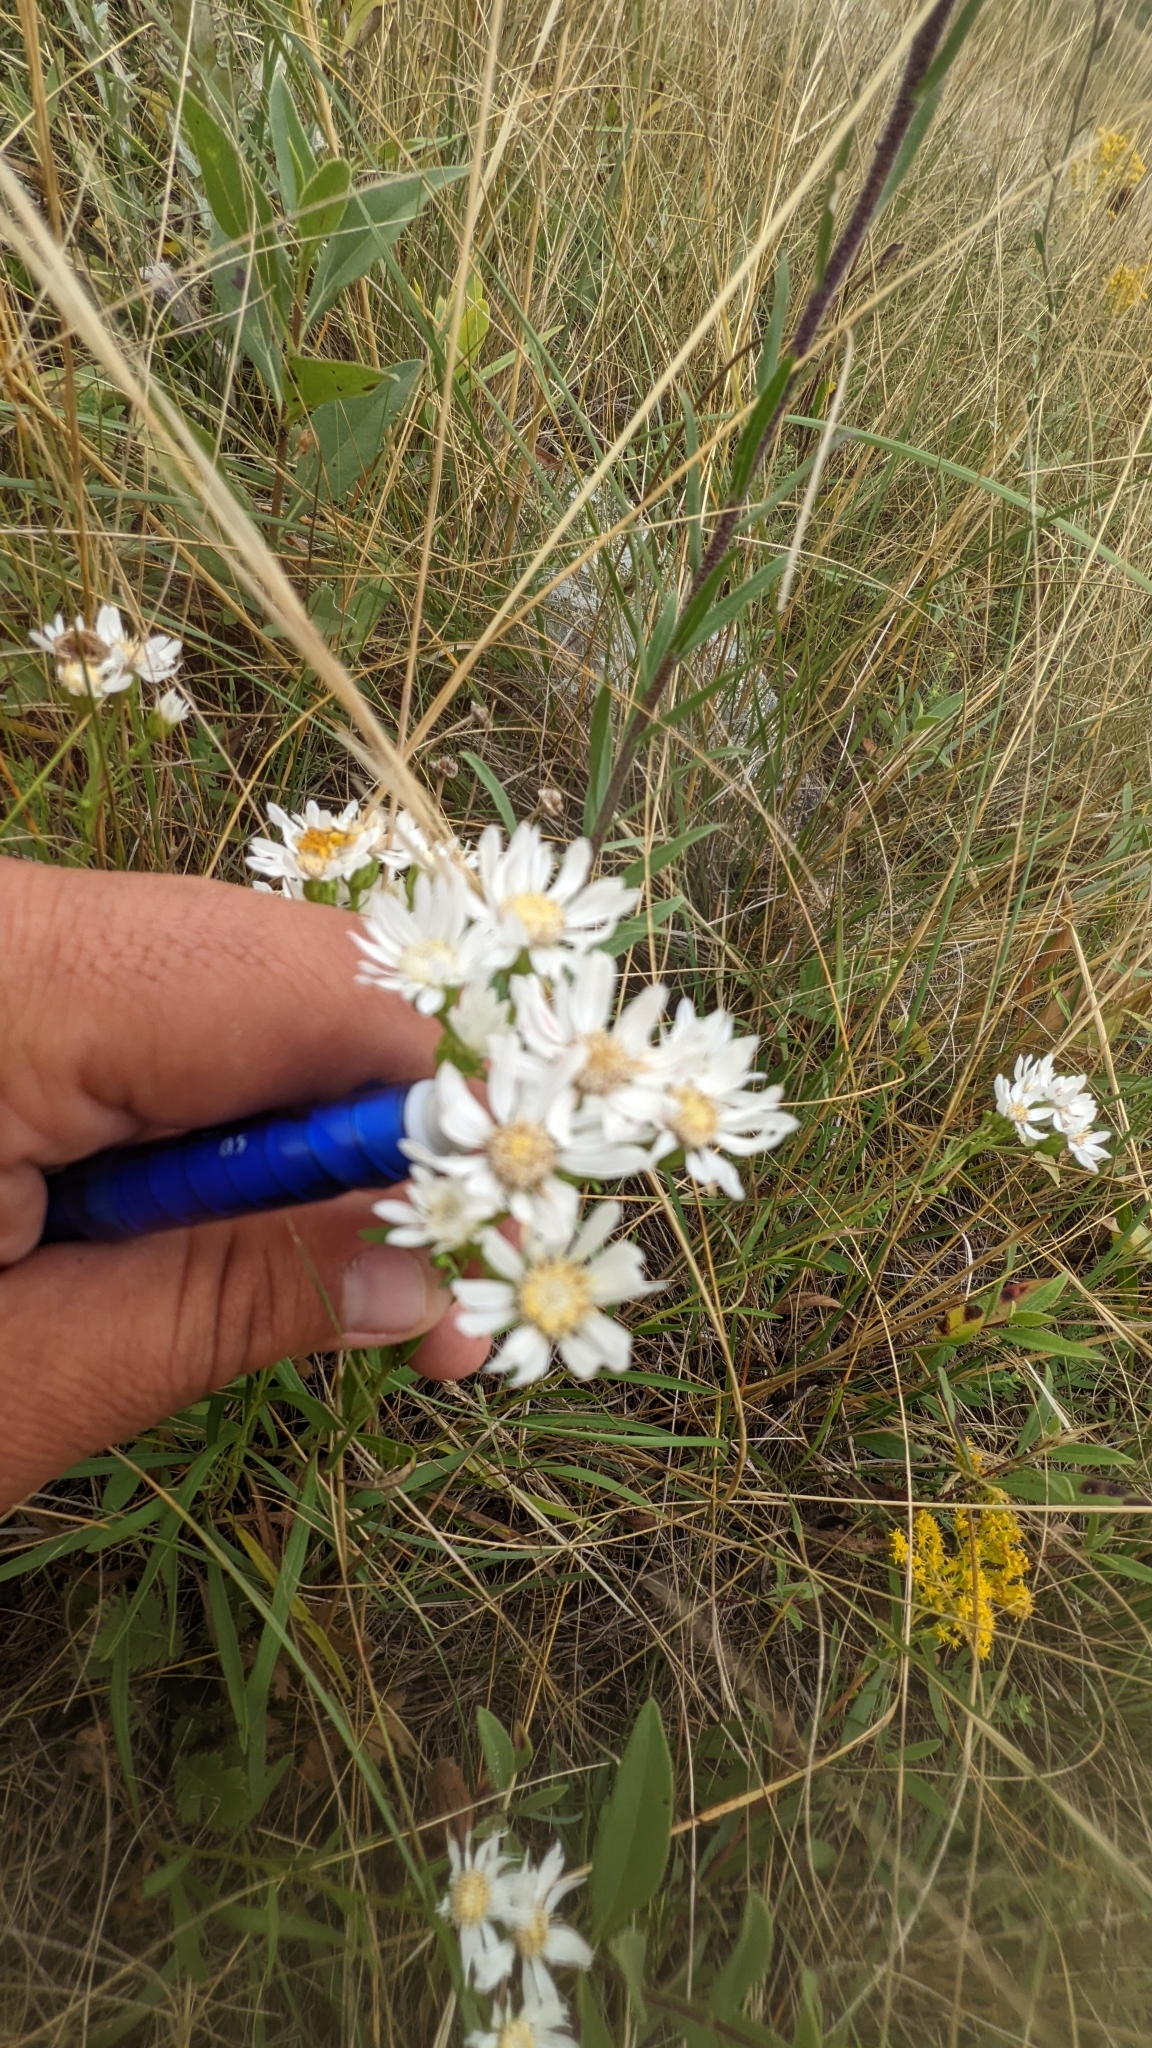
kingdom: Plantae
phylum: Tracheophyta
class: Magnoliopsida
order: Asterales
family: Asteraceae
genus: Solidago
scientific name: Solidago ptarmicoides
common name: White flat-top goldenrod
